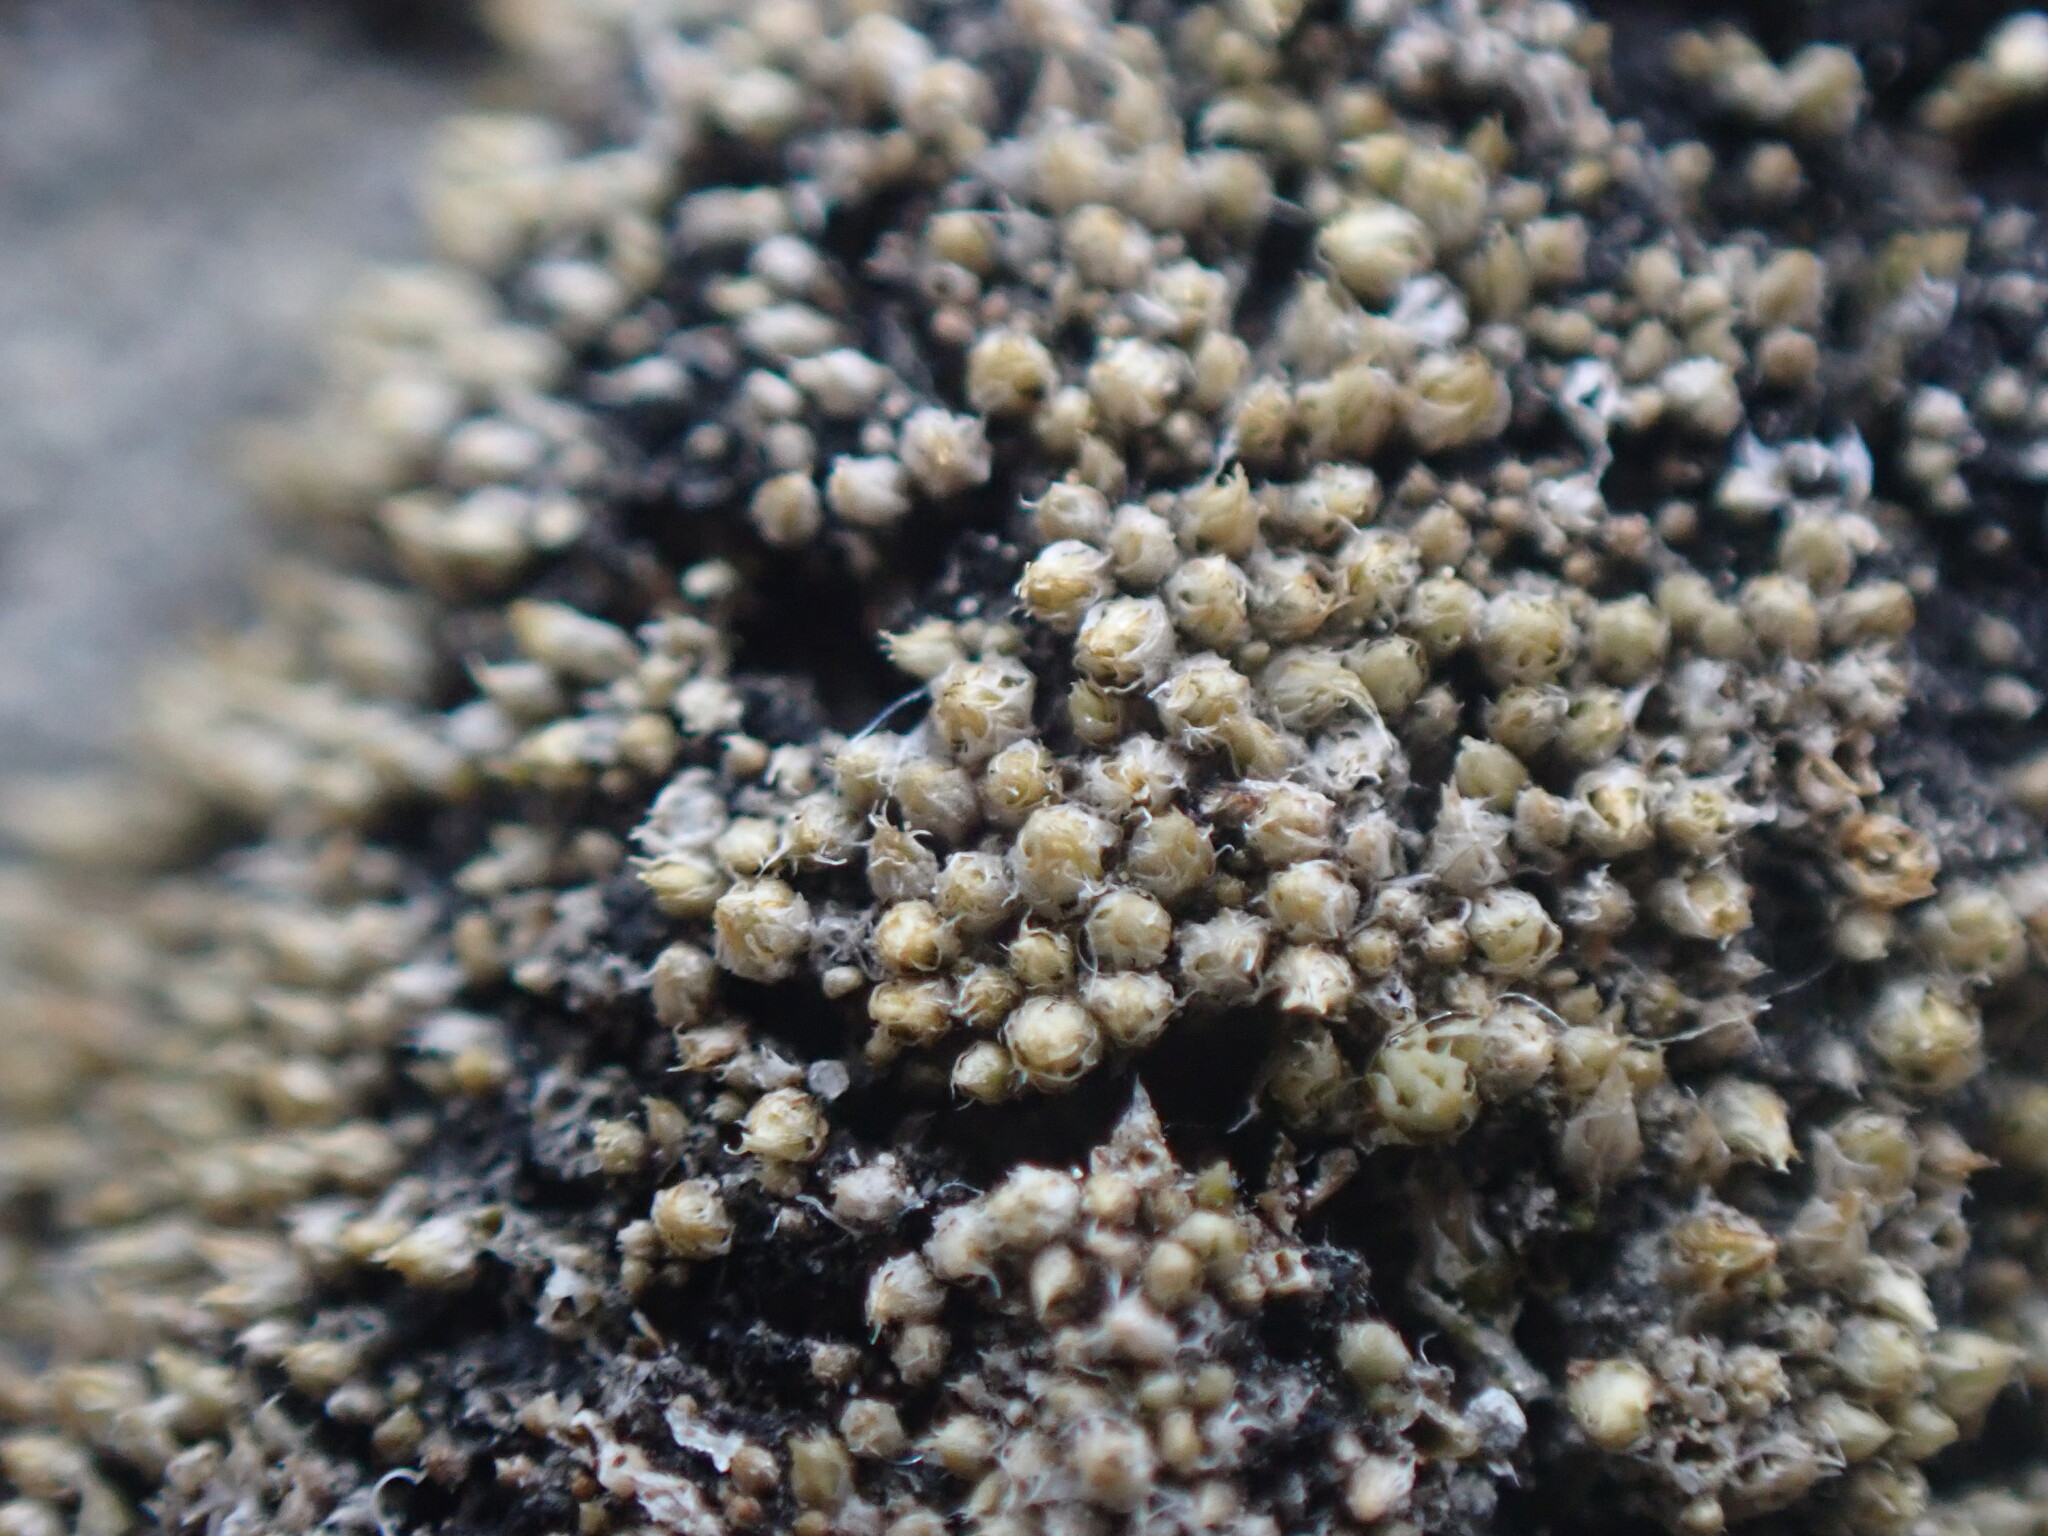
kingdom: Plantae
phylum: Bryophyta
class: Bryopsida
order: Bryales
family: Bryaceae
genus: Bryum
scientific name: Bryum argenteum
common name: Silver-moss
